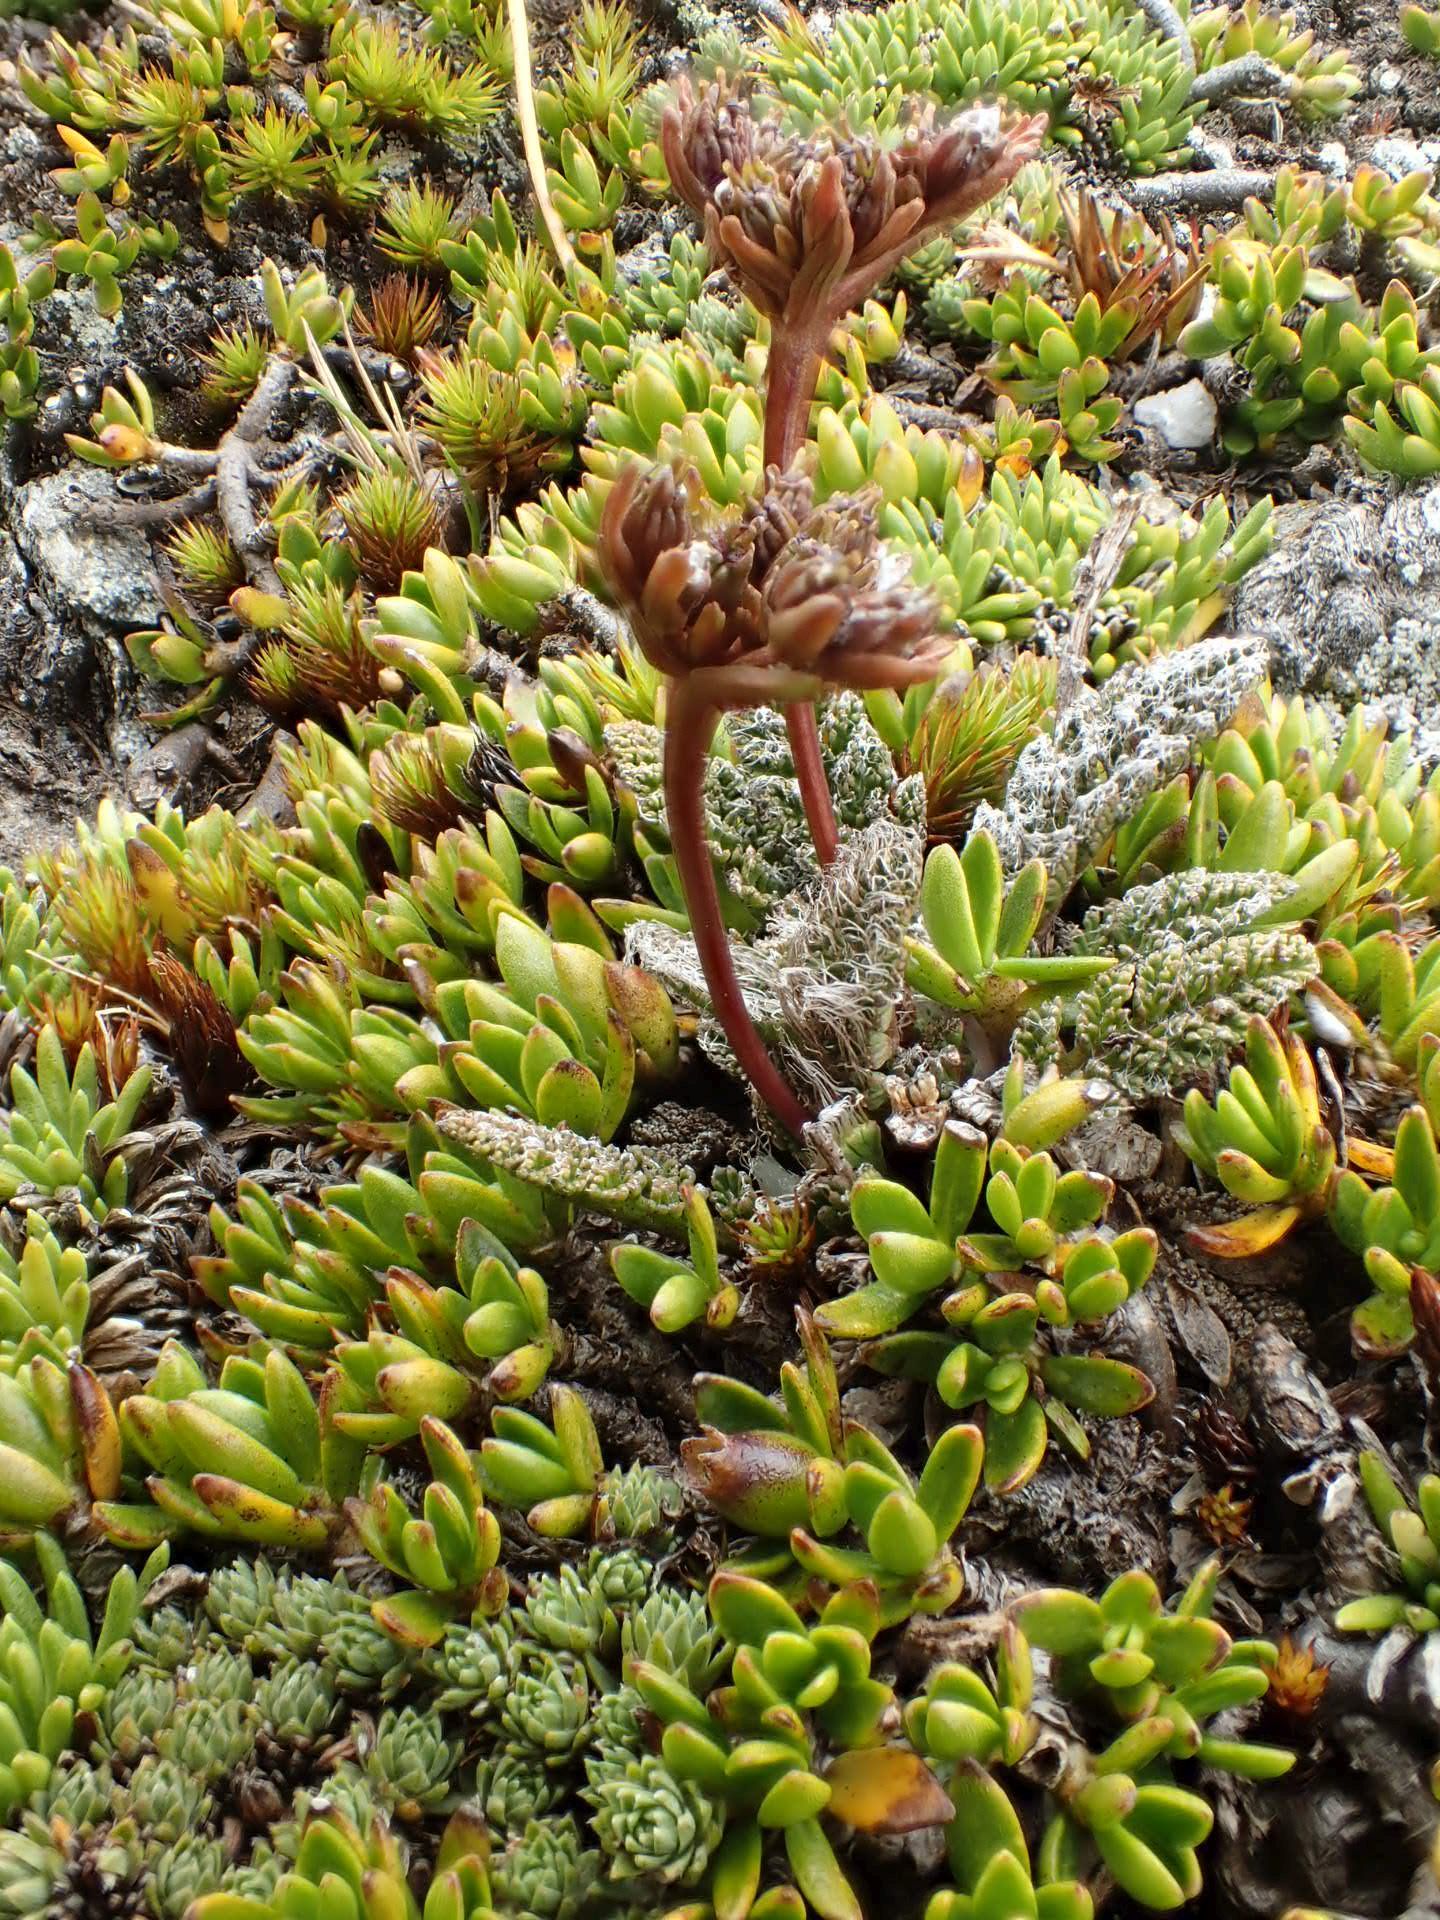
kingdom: Plantae
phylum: Tracheophyta
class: Magnoliopsida
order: Apiales
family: Apiaceae
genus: Anisotome
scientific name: Anisotome lanuginosa
